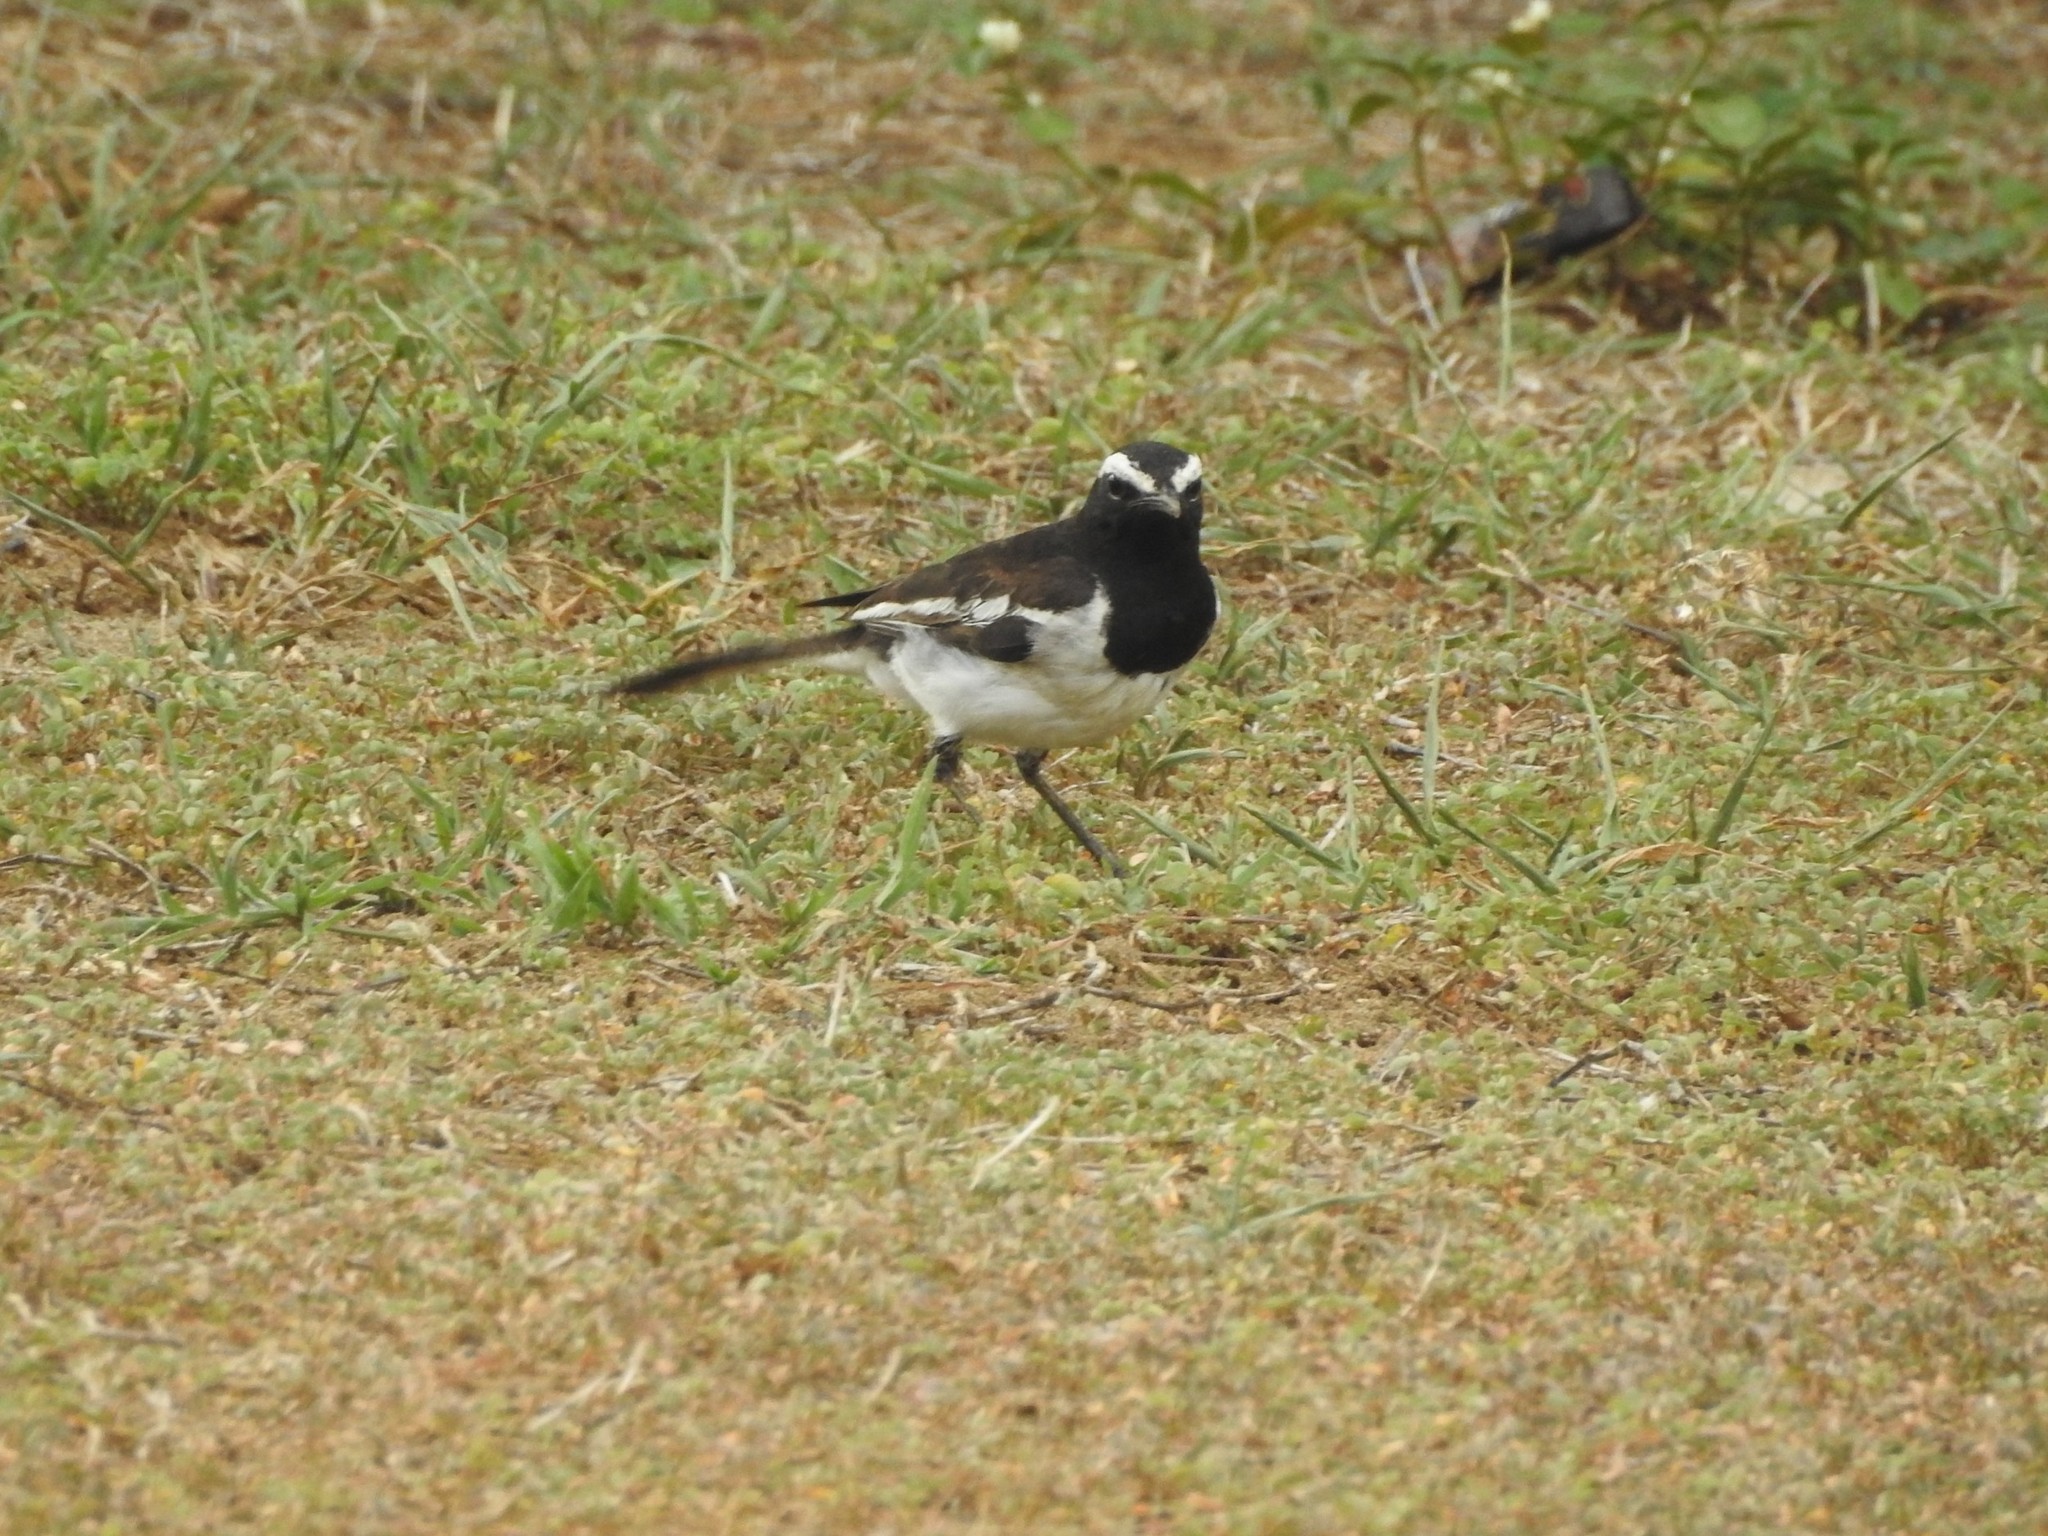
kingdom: Animalia
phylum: Chordata
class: Aves
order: Passeriformes
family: Motacillidae
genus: Motacilla
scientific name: Motacilla maderaspatensis
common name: White-browed wagtail
